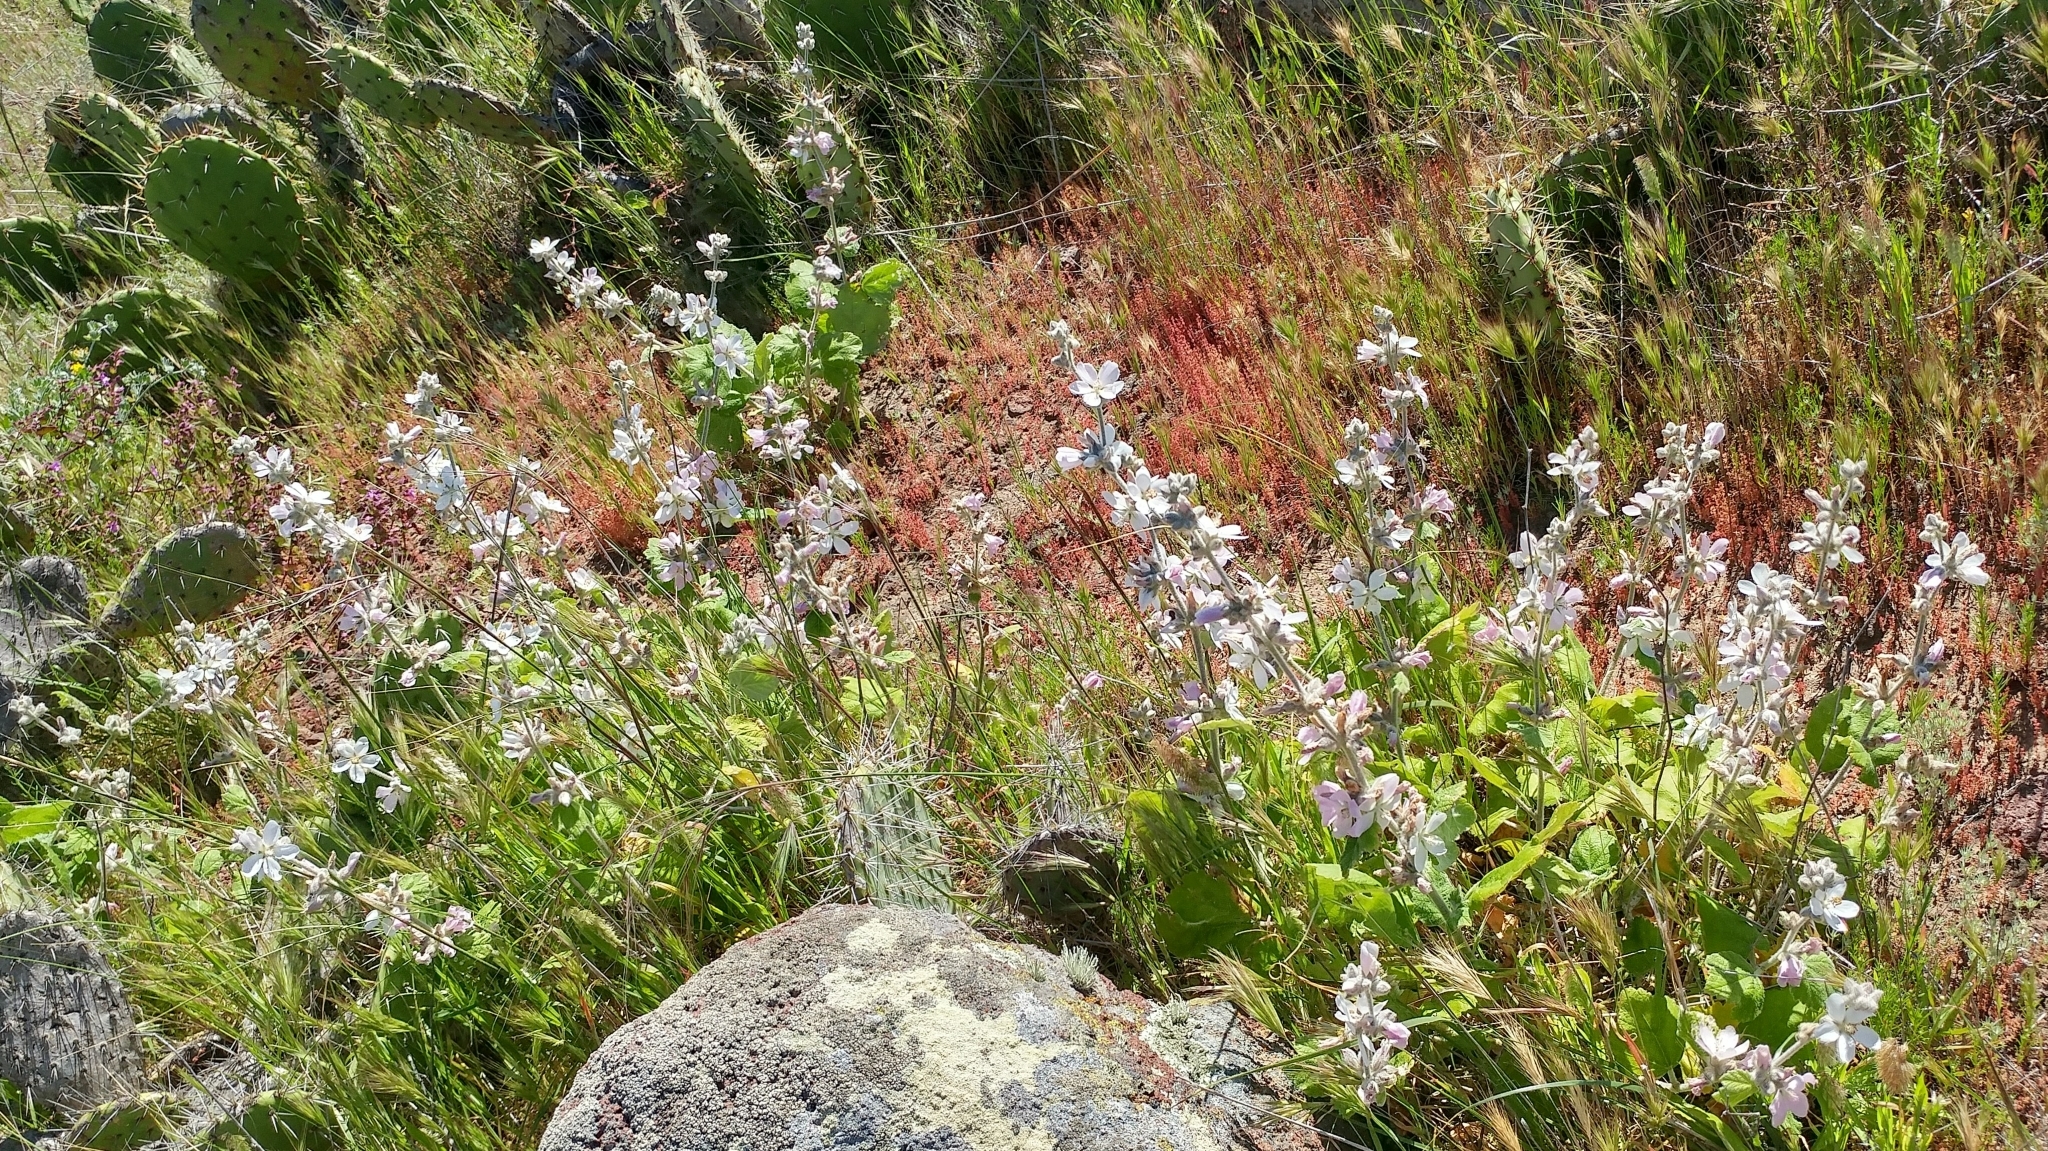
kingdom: Plantae
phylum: Tracheophyta
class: Magnoliopsida
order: Malvales
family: Malvaceae
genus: Malacothamnus
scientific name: Malacothamnus clementinus
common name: San clemente island bush-mallow
